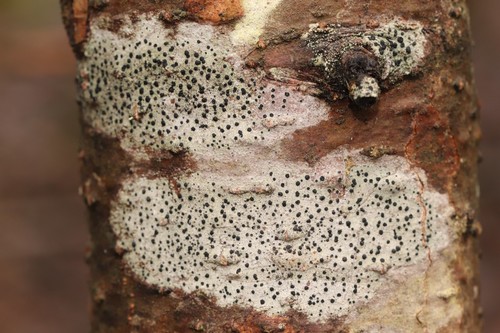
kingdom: Fungi
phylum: Ascomycota
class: Lecanoromycetes
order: Lecanorales
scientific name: Lecanorales
